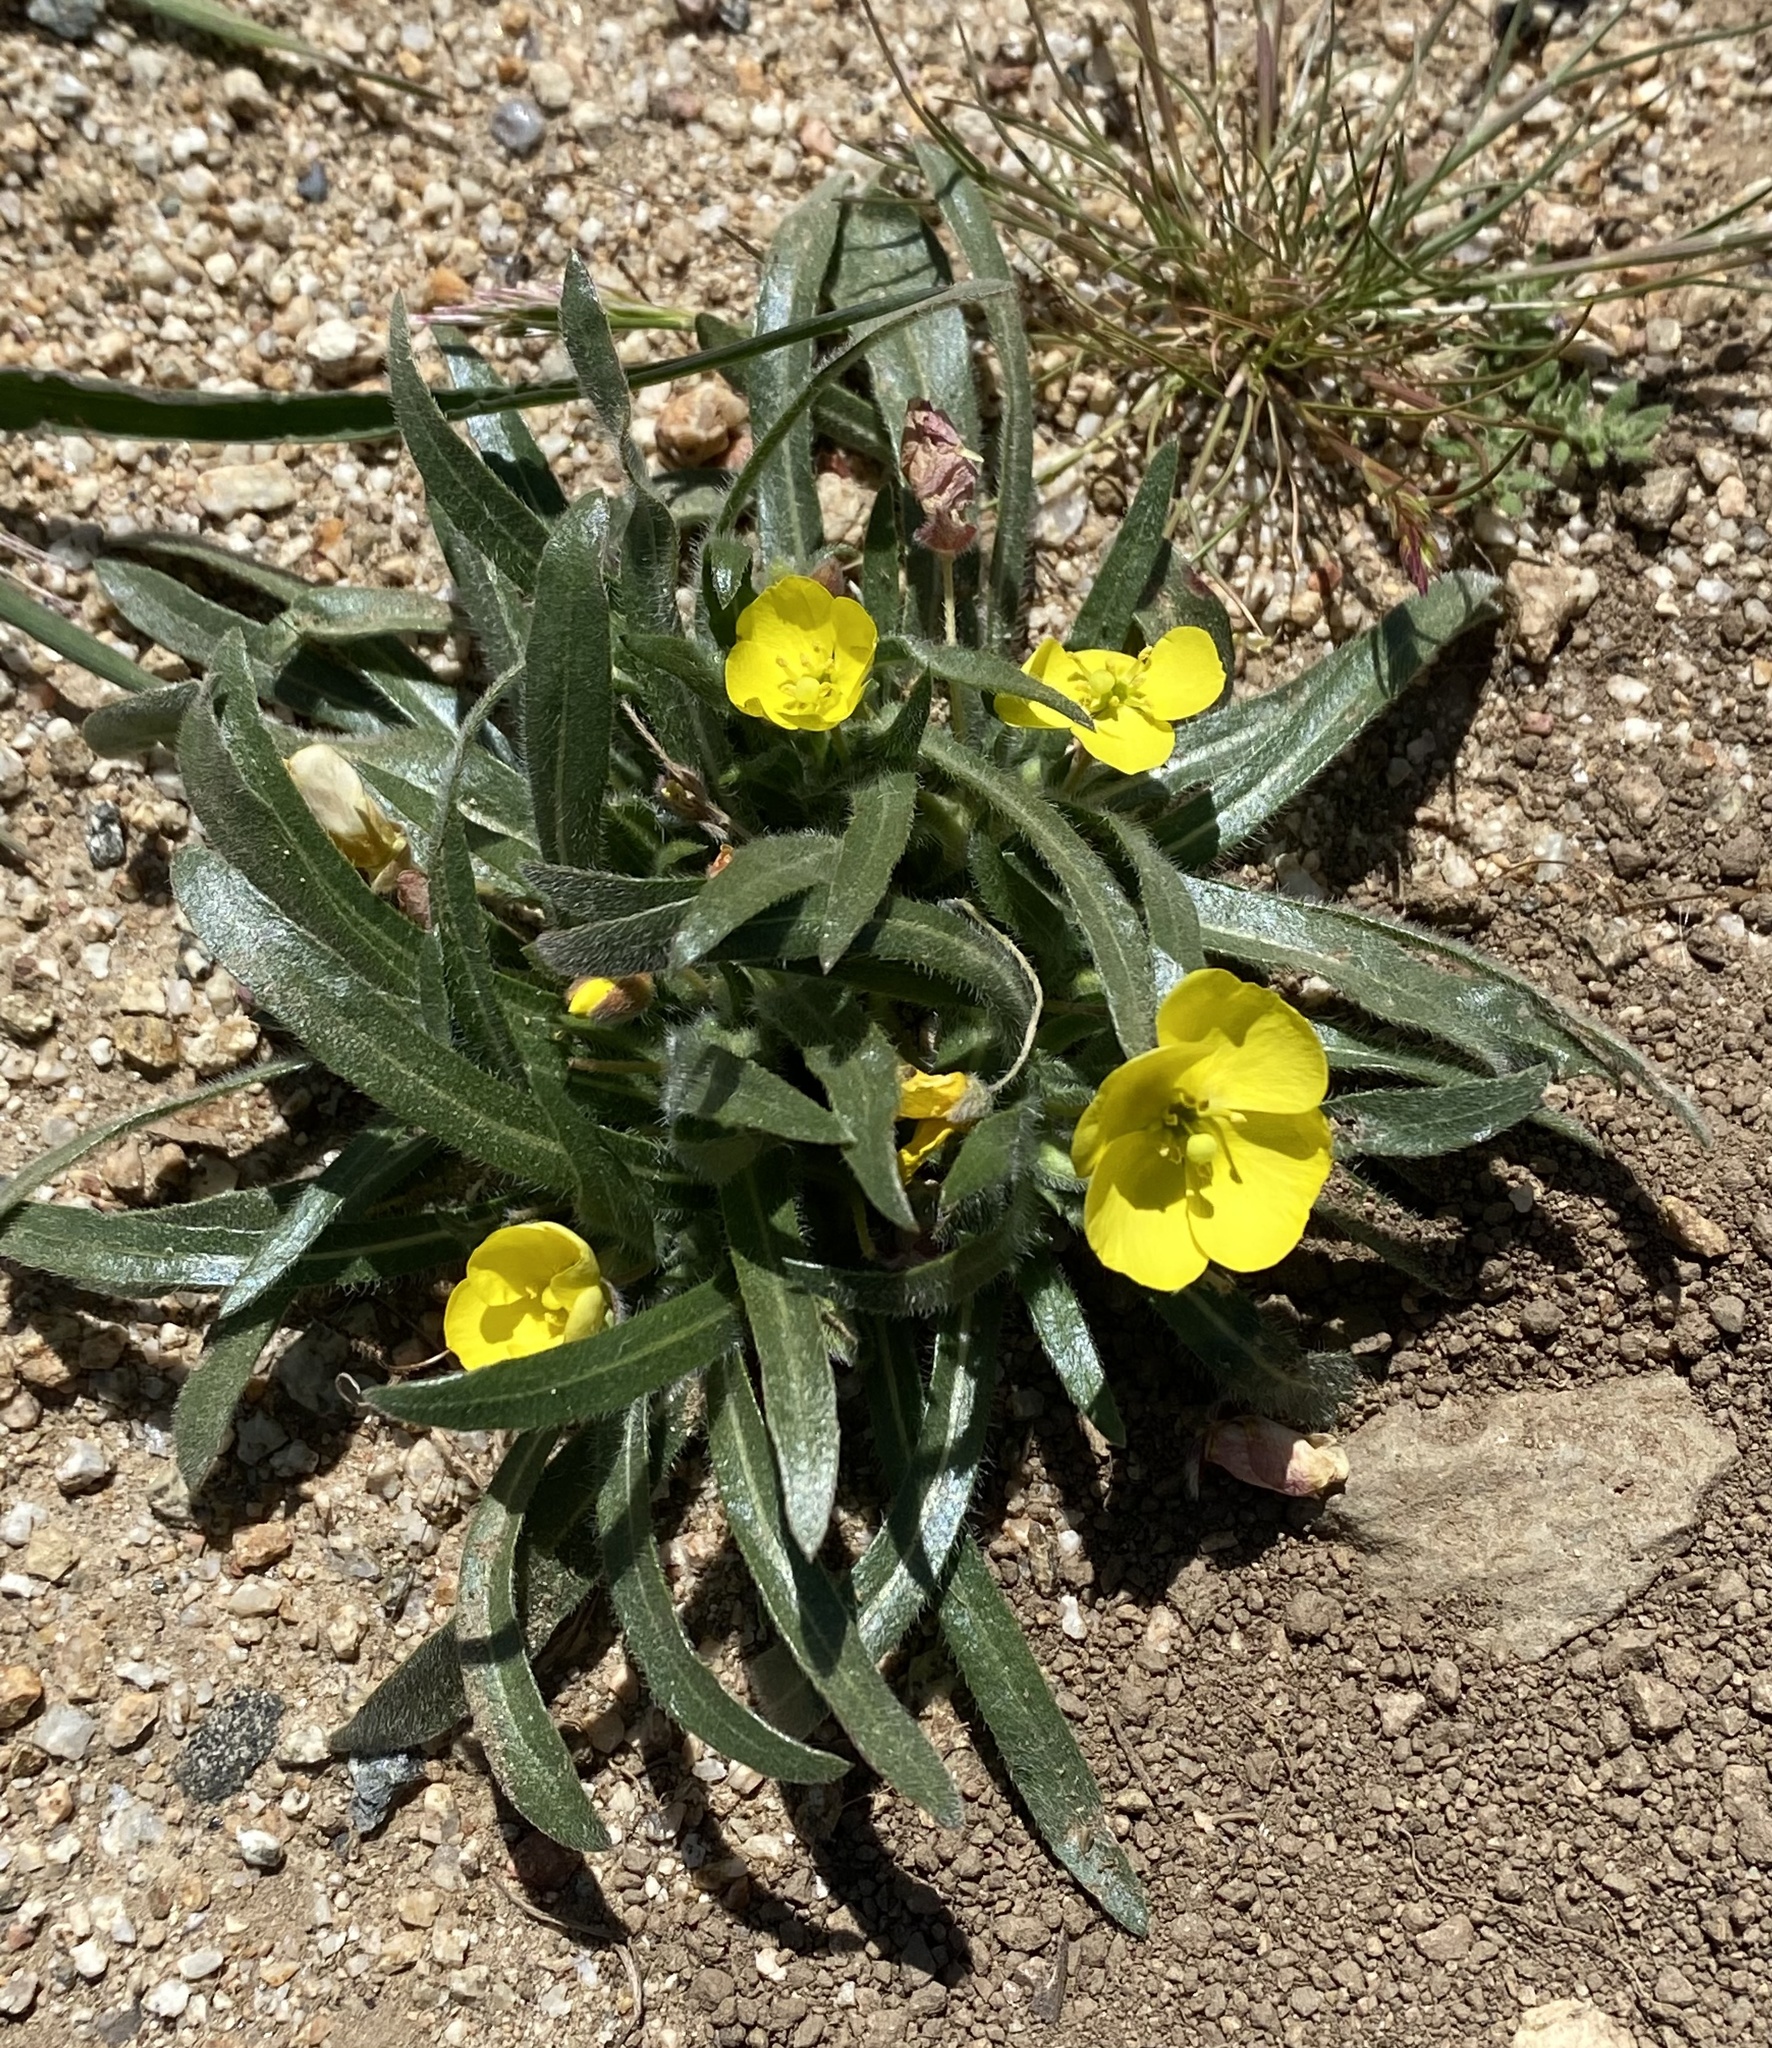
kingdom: Plantae
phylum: Tracheophyta
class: Magnoliopsida
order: Myrtales
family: Onagraceae
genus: Camissoniopsis
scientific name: Camissoniopsis pallida
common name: Paleyellow suncup
